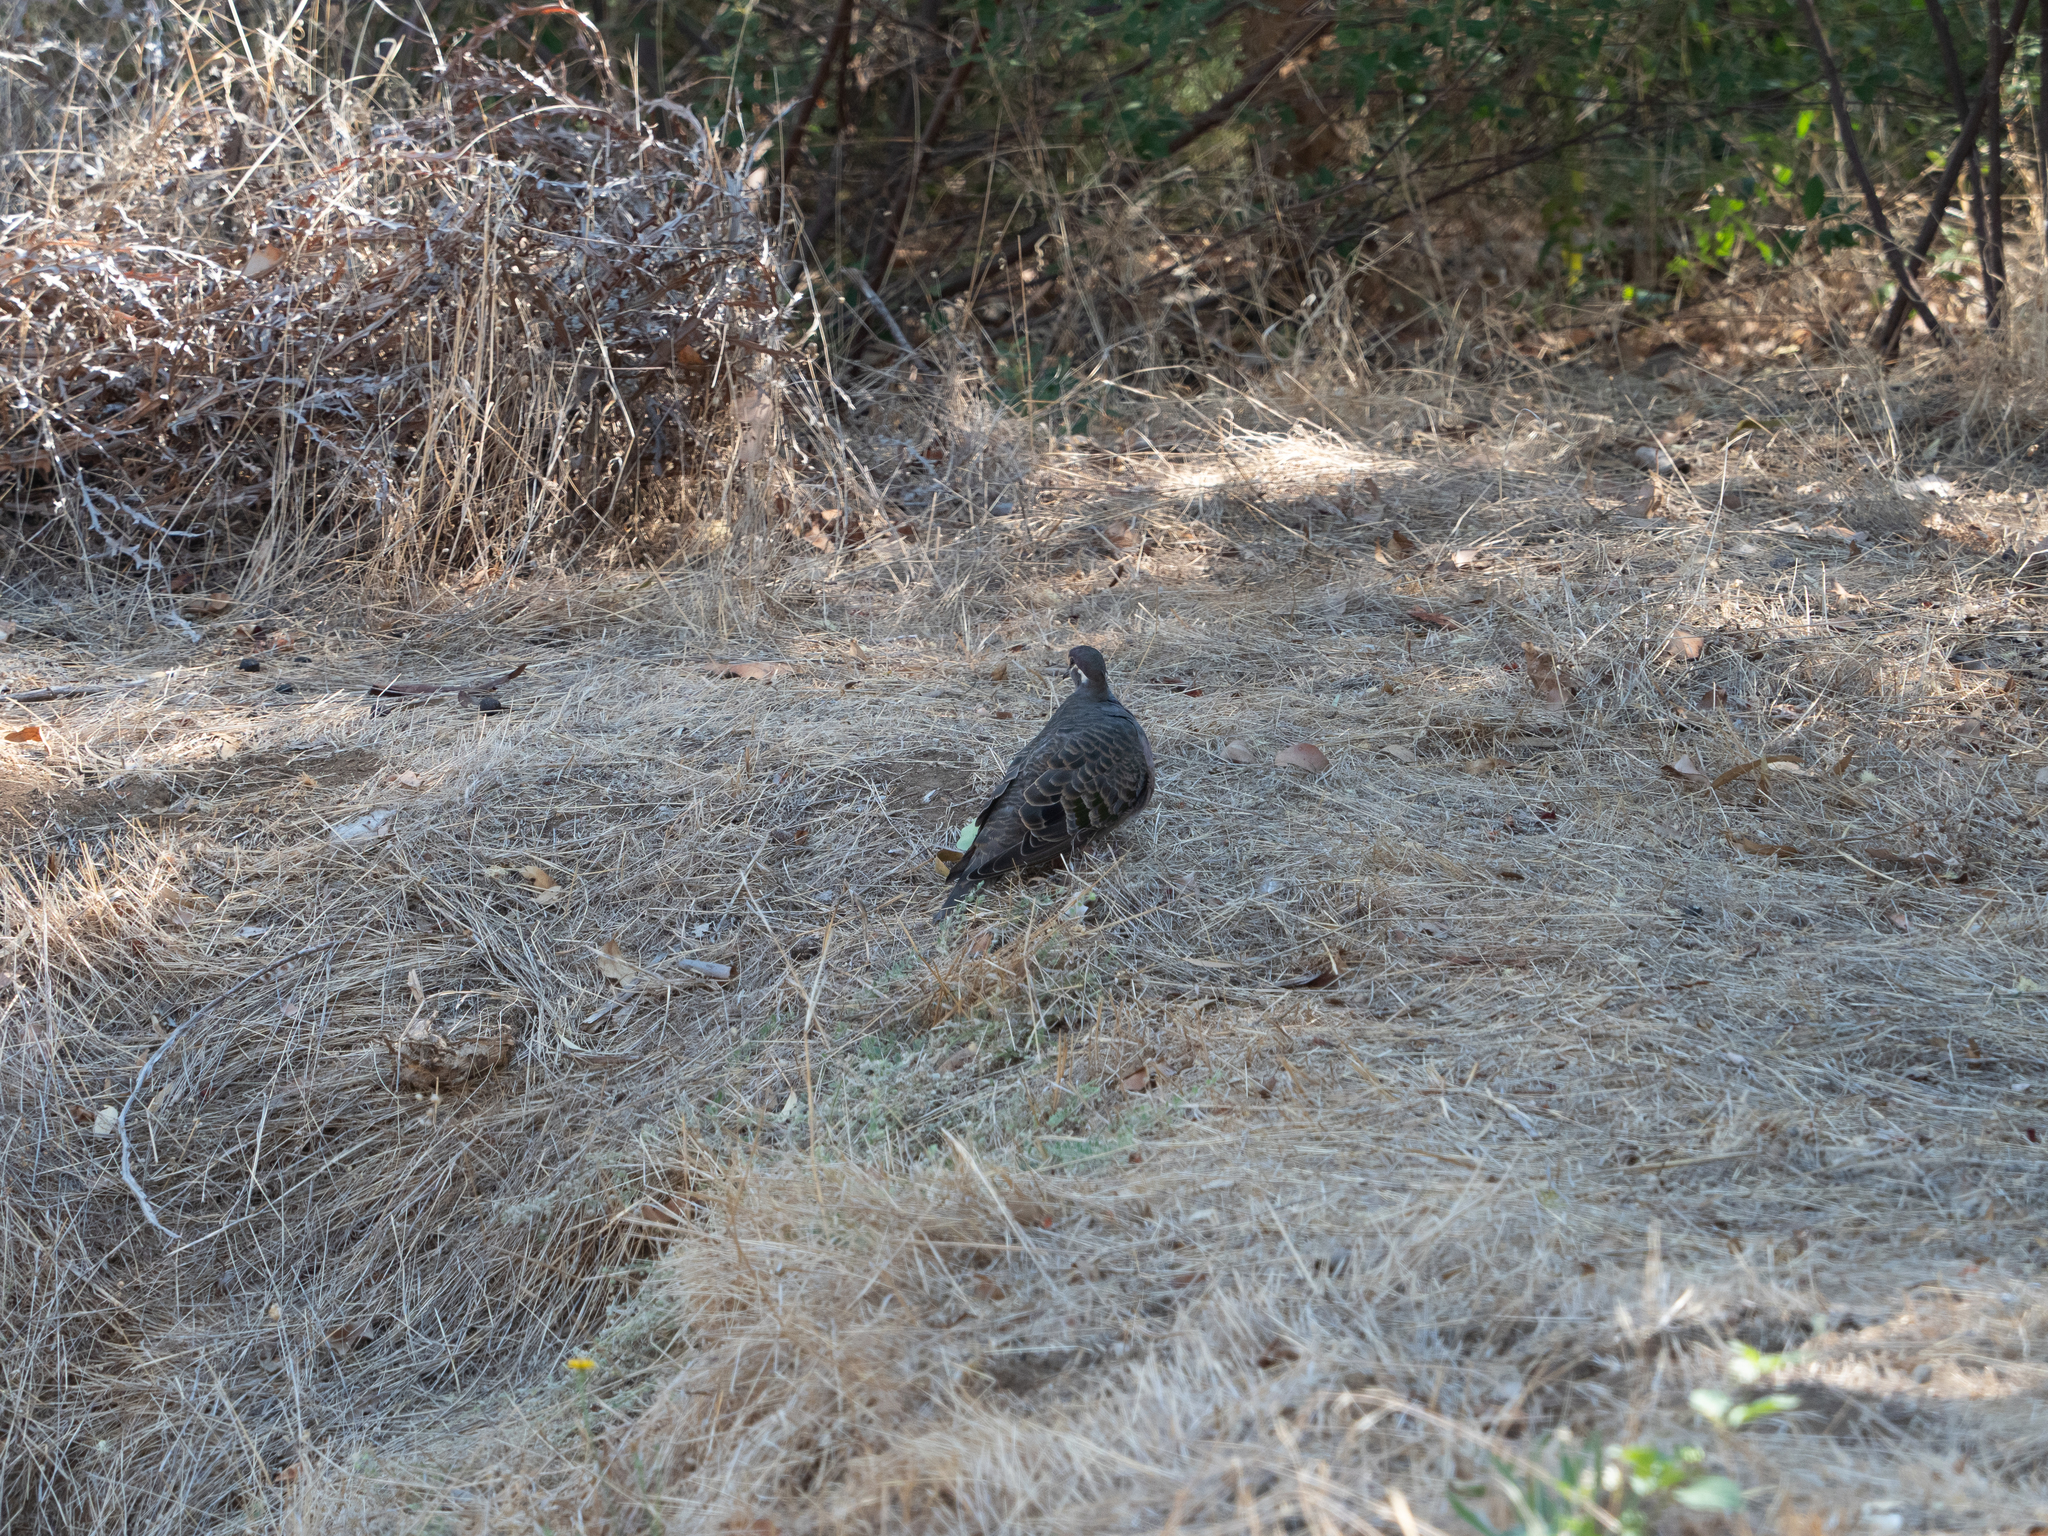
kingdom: Animalia
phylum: Chordata
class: Aves
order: Columbiformes
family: Columbidae
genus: Phaps
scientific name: Phaps chalcoptera
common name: Common bronzewing
